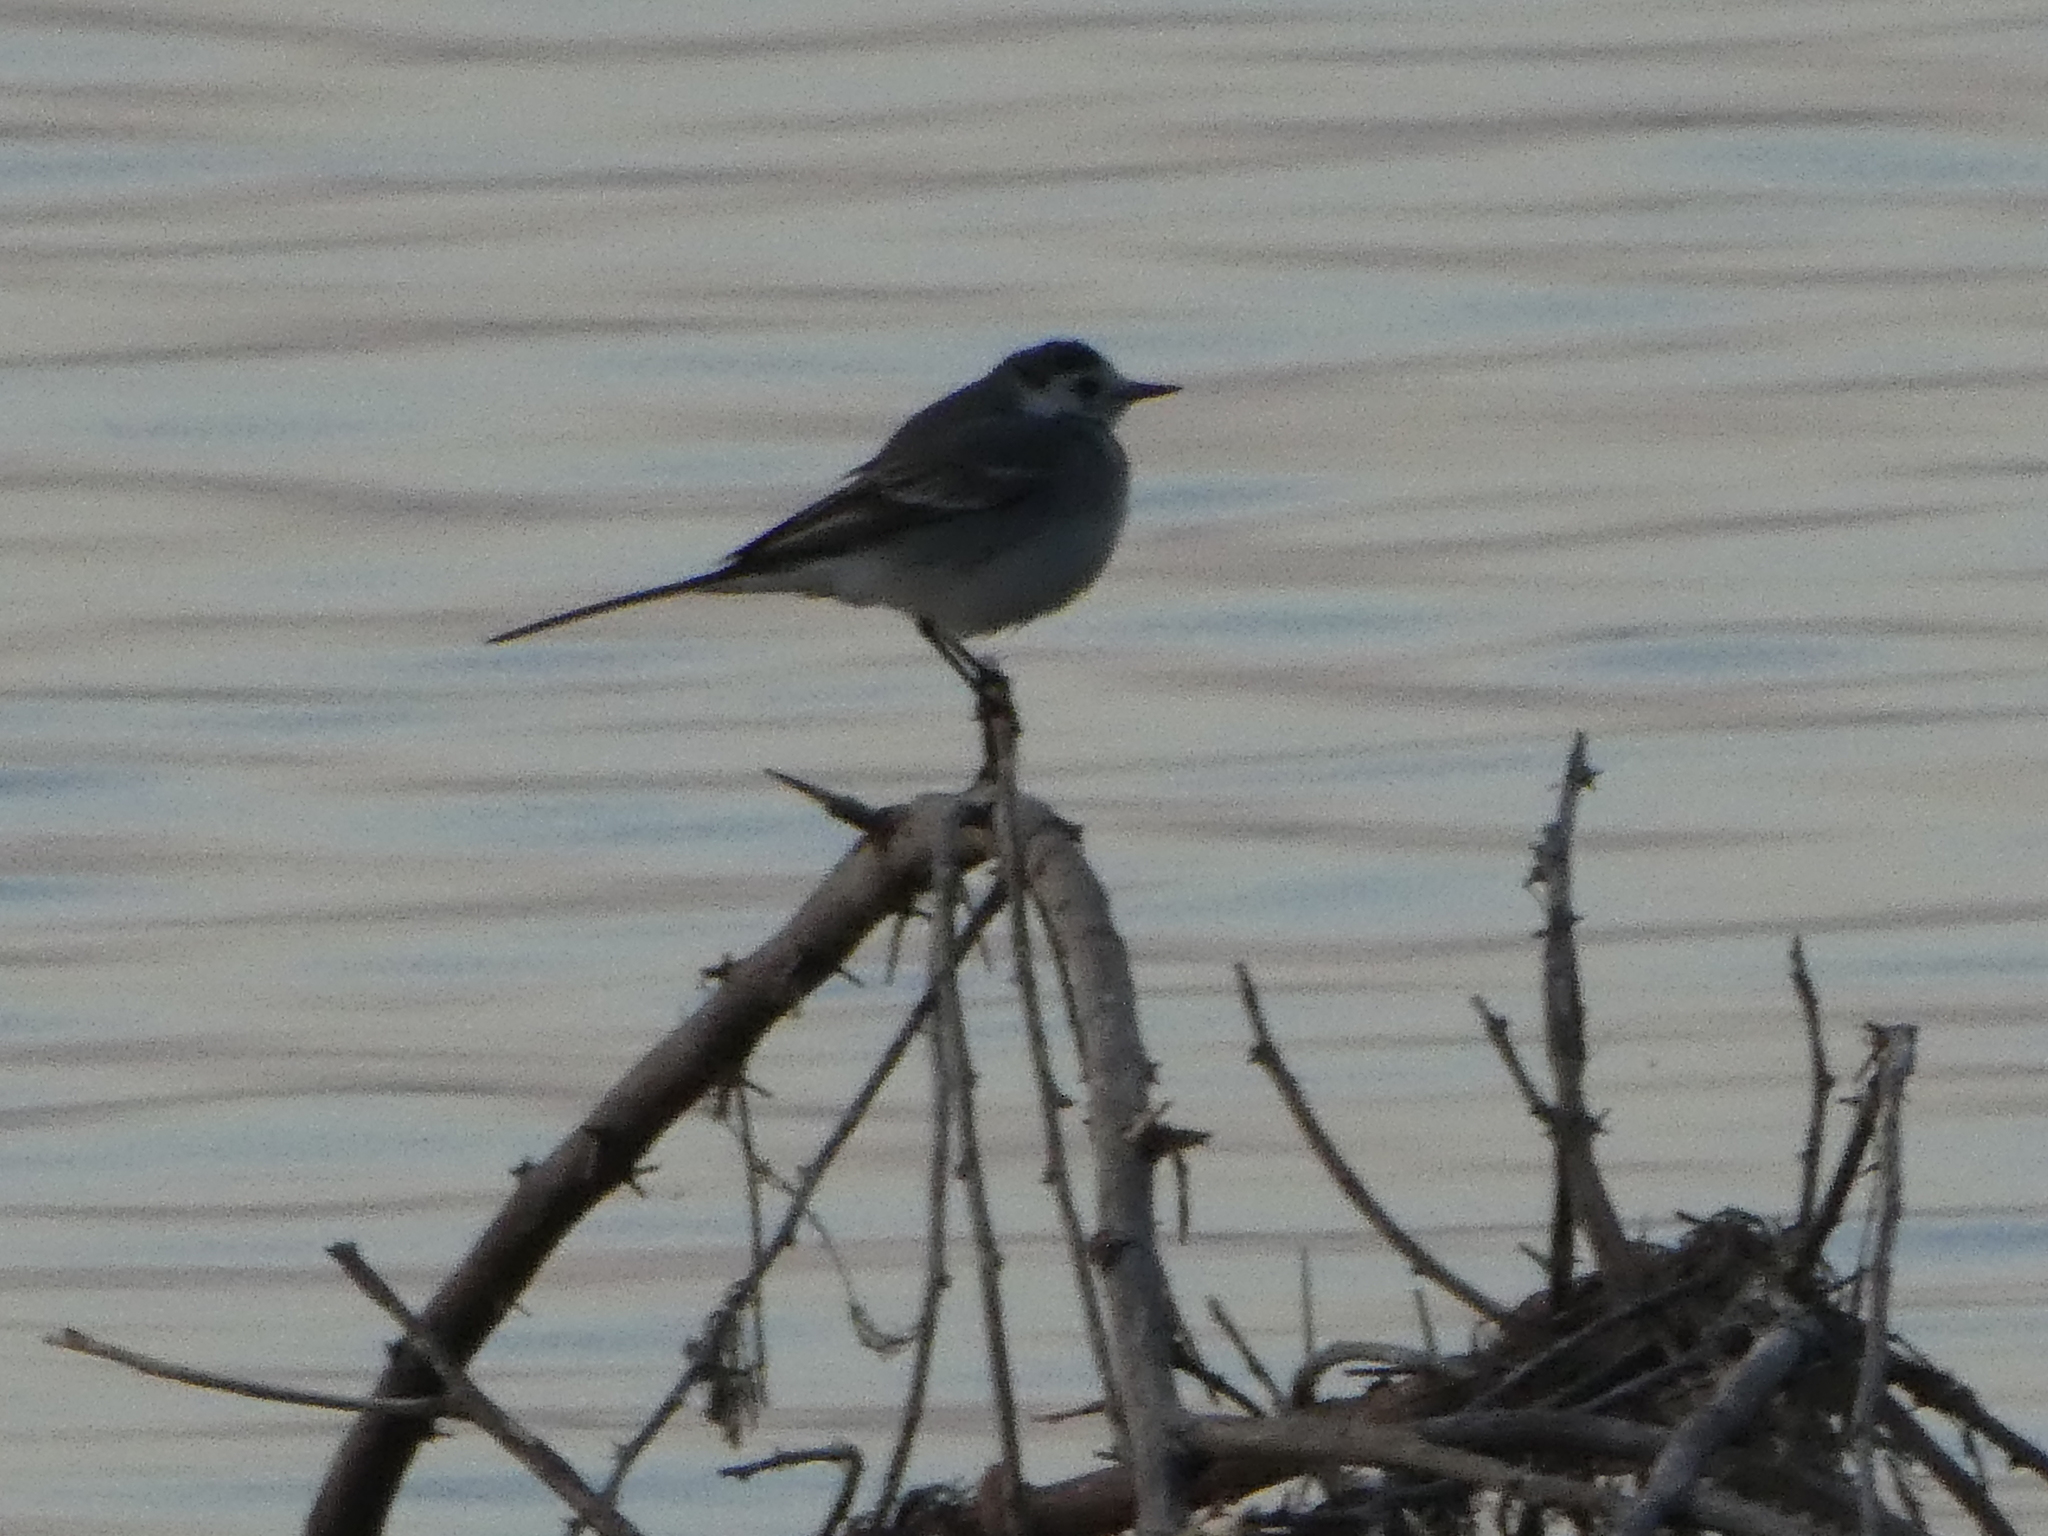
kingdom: Animalia
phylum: Chordata
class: Aves
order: Passeriformes
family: Motacillidae
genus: Motacilla
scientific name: Motacilla alba
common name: White wagtail
